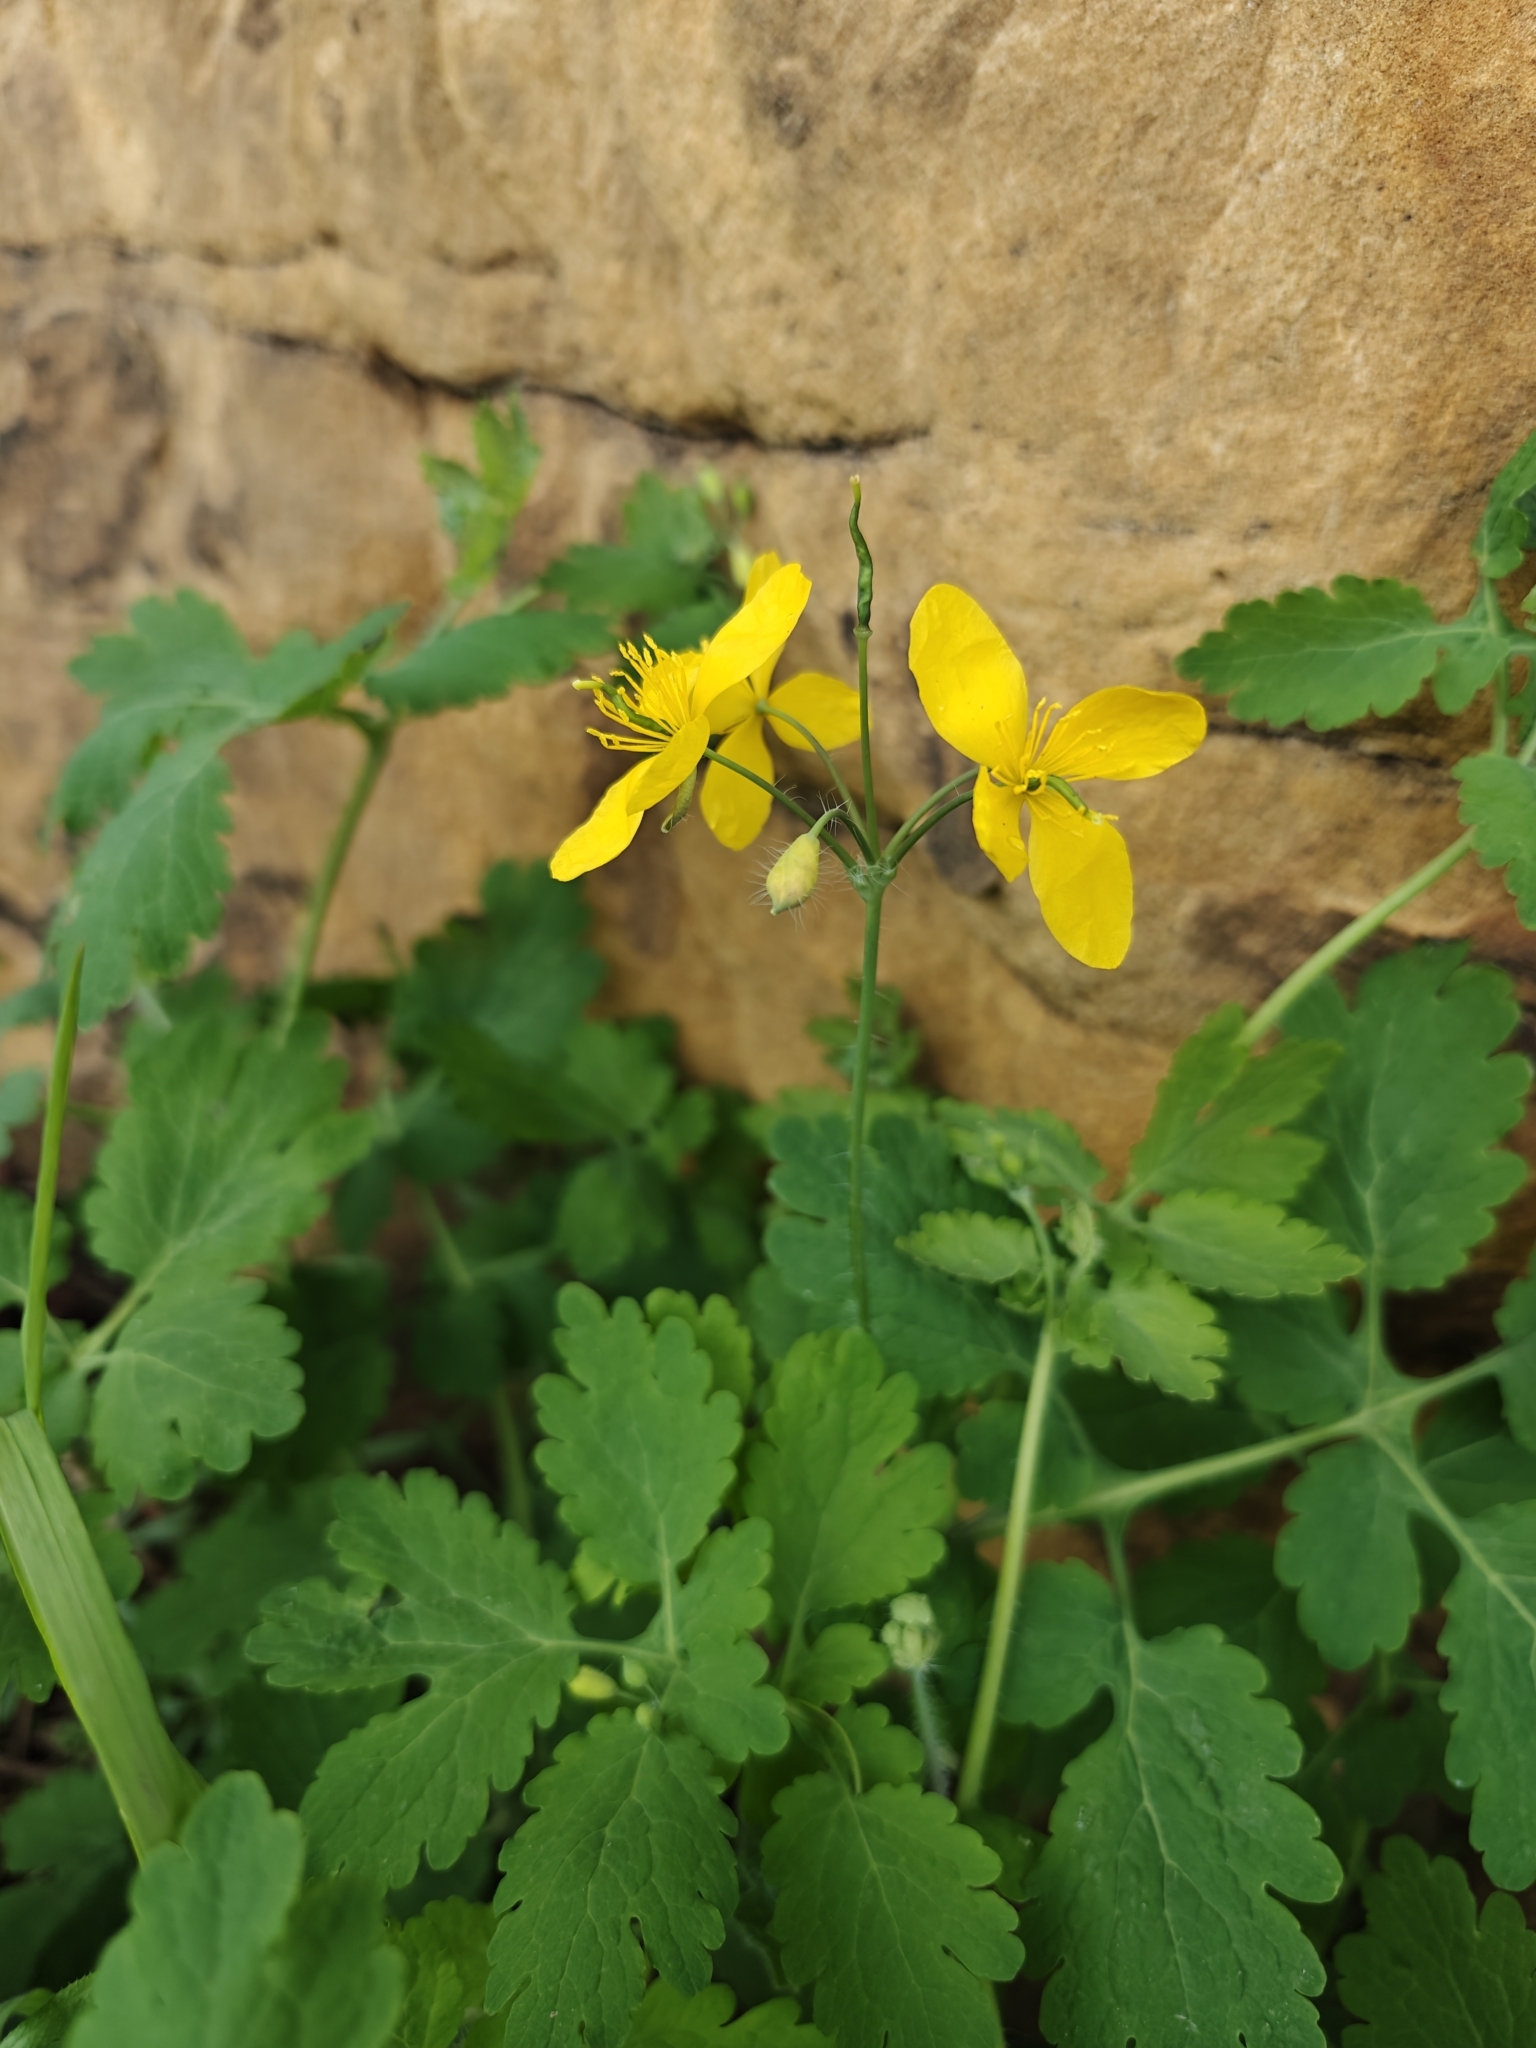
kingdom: Plantae
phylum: Tracheophyta
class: Magnoliopsida
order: Ranunculales
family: Papaveraceae
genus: Chelidonium
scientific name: Chelidonium majus
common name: Greater celandine
